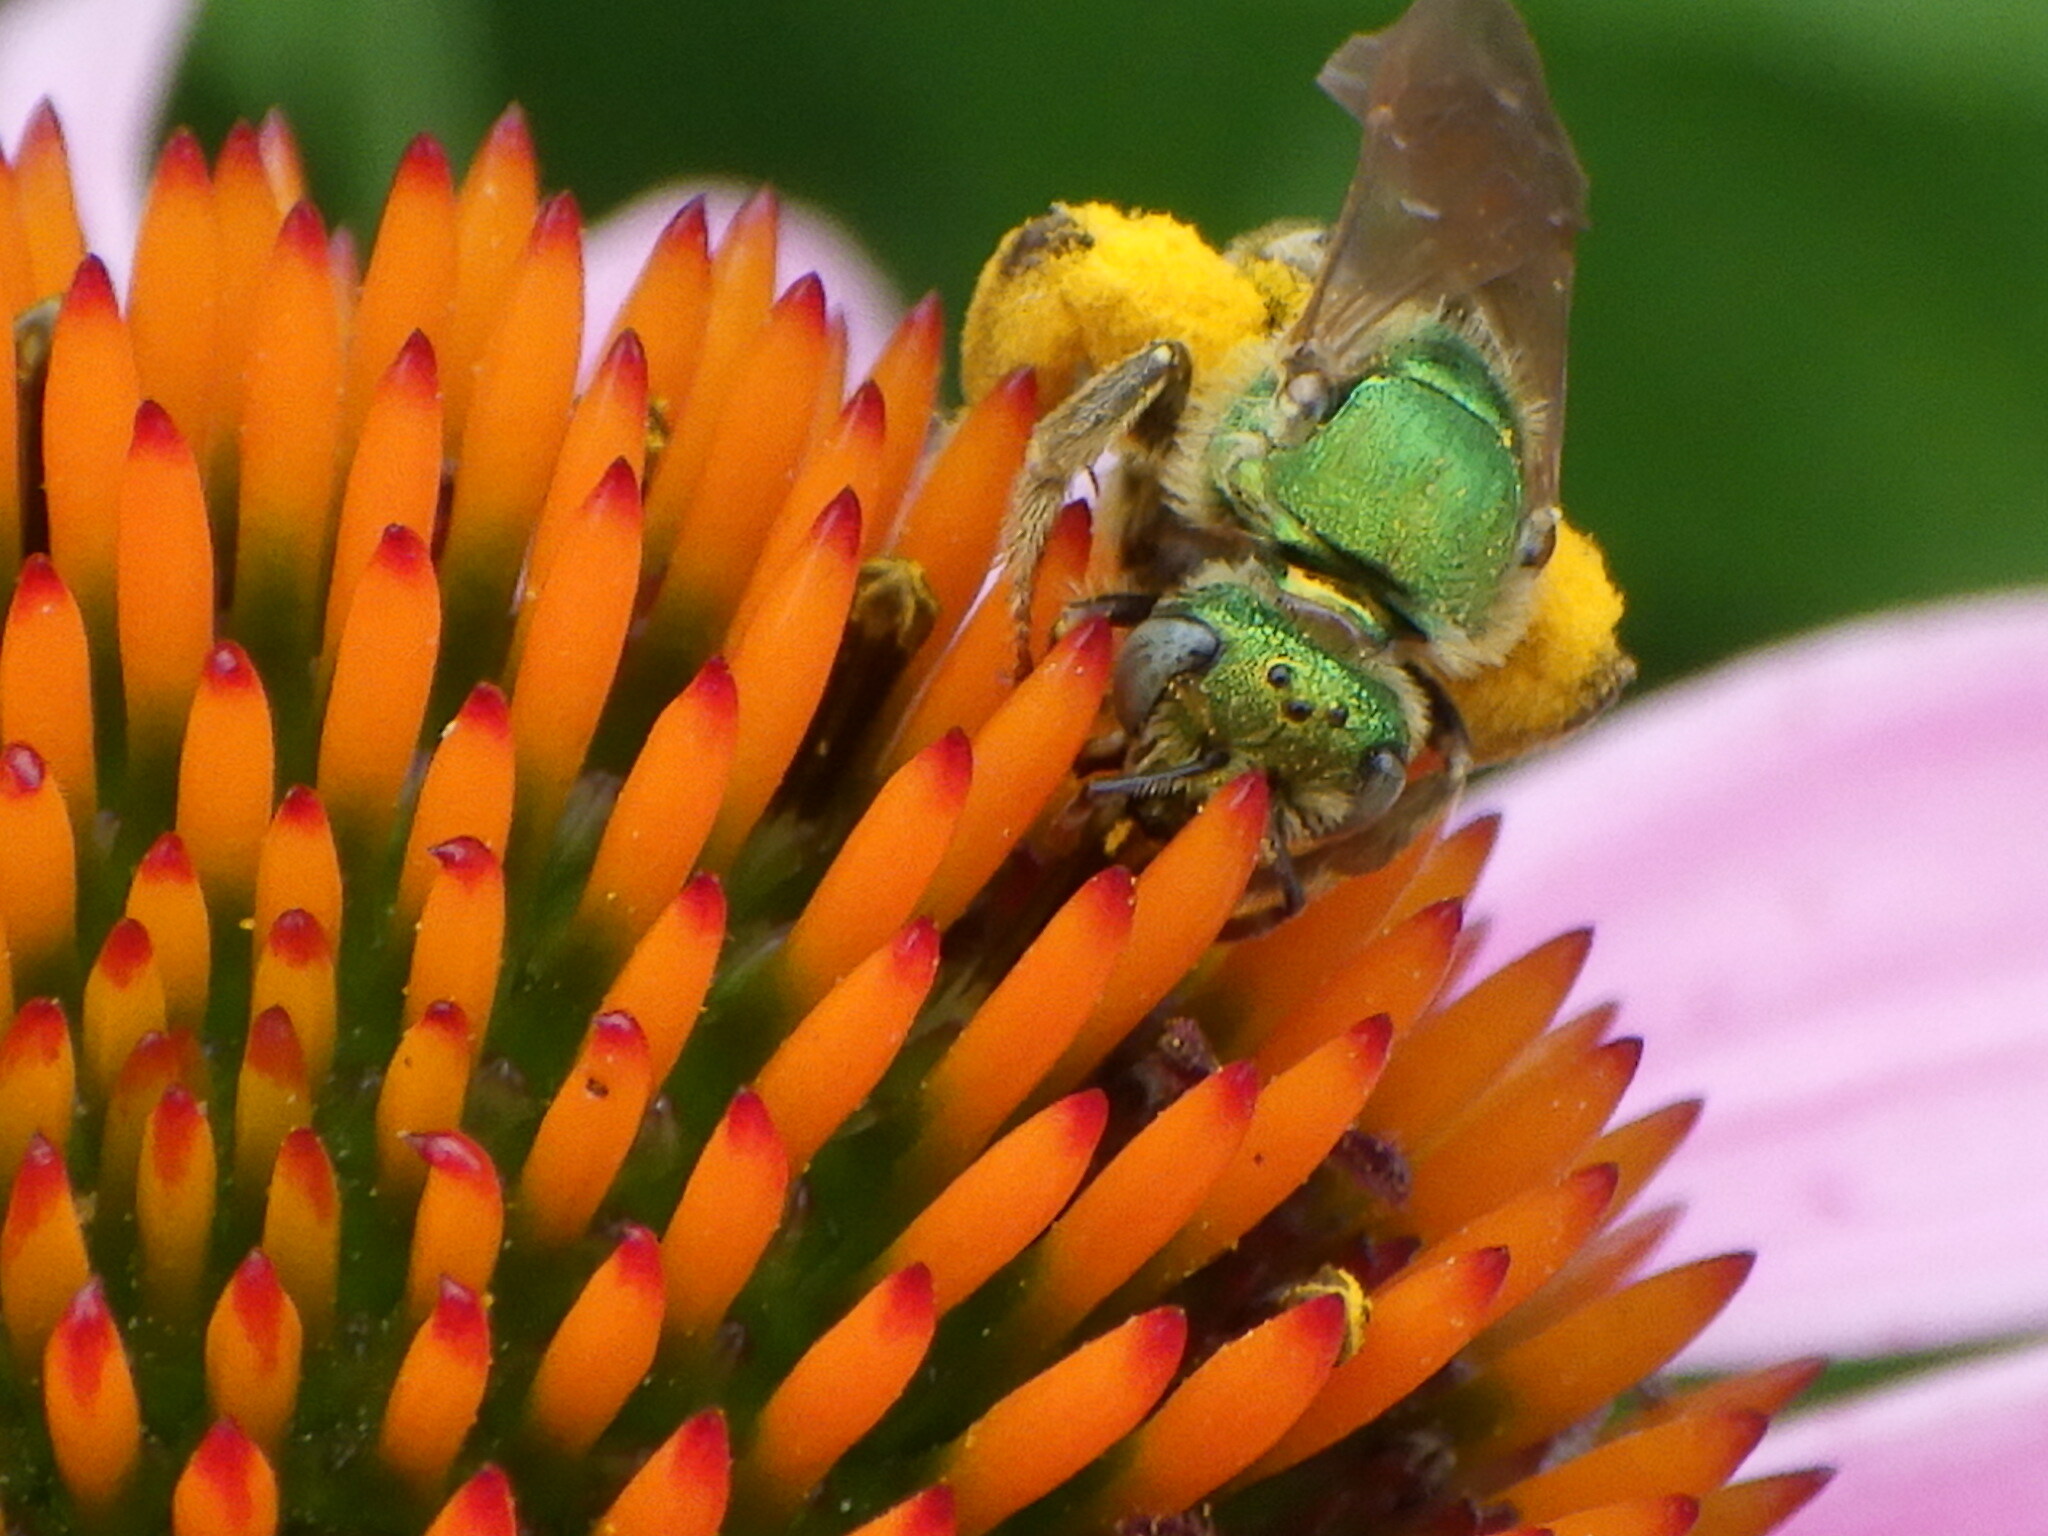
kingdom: Animalia
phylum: Arthropoda
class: Insecta
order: Hymenoptera
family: Halictidae
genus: Agapostemon
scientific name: Agapostemon virescens
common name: Bicolored striped sweat bee
